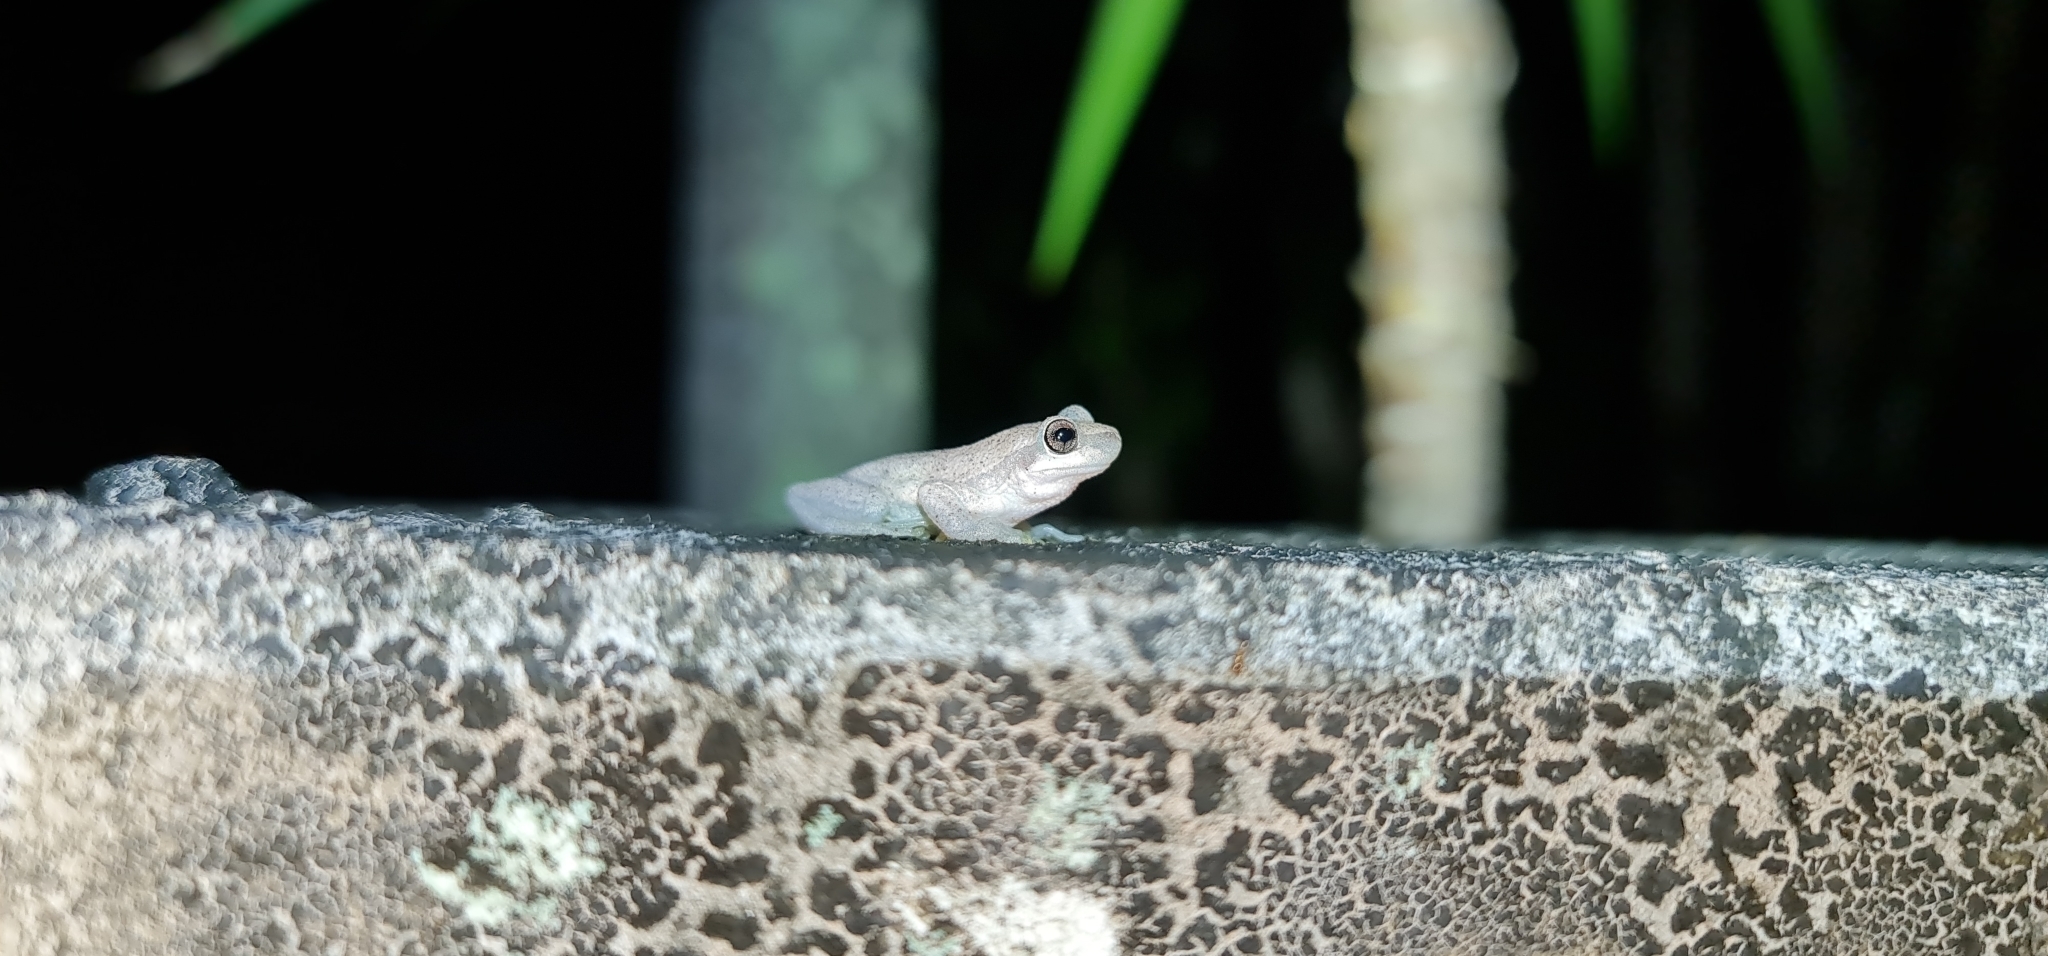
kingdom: Animalia
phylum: Chordata
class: Amphibia
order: Anura
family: Pelodryadidae
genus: Litoria
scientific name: Litoria rubella
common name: Desert tree frog
